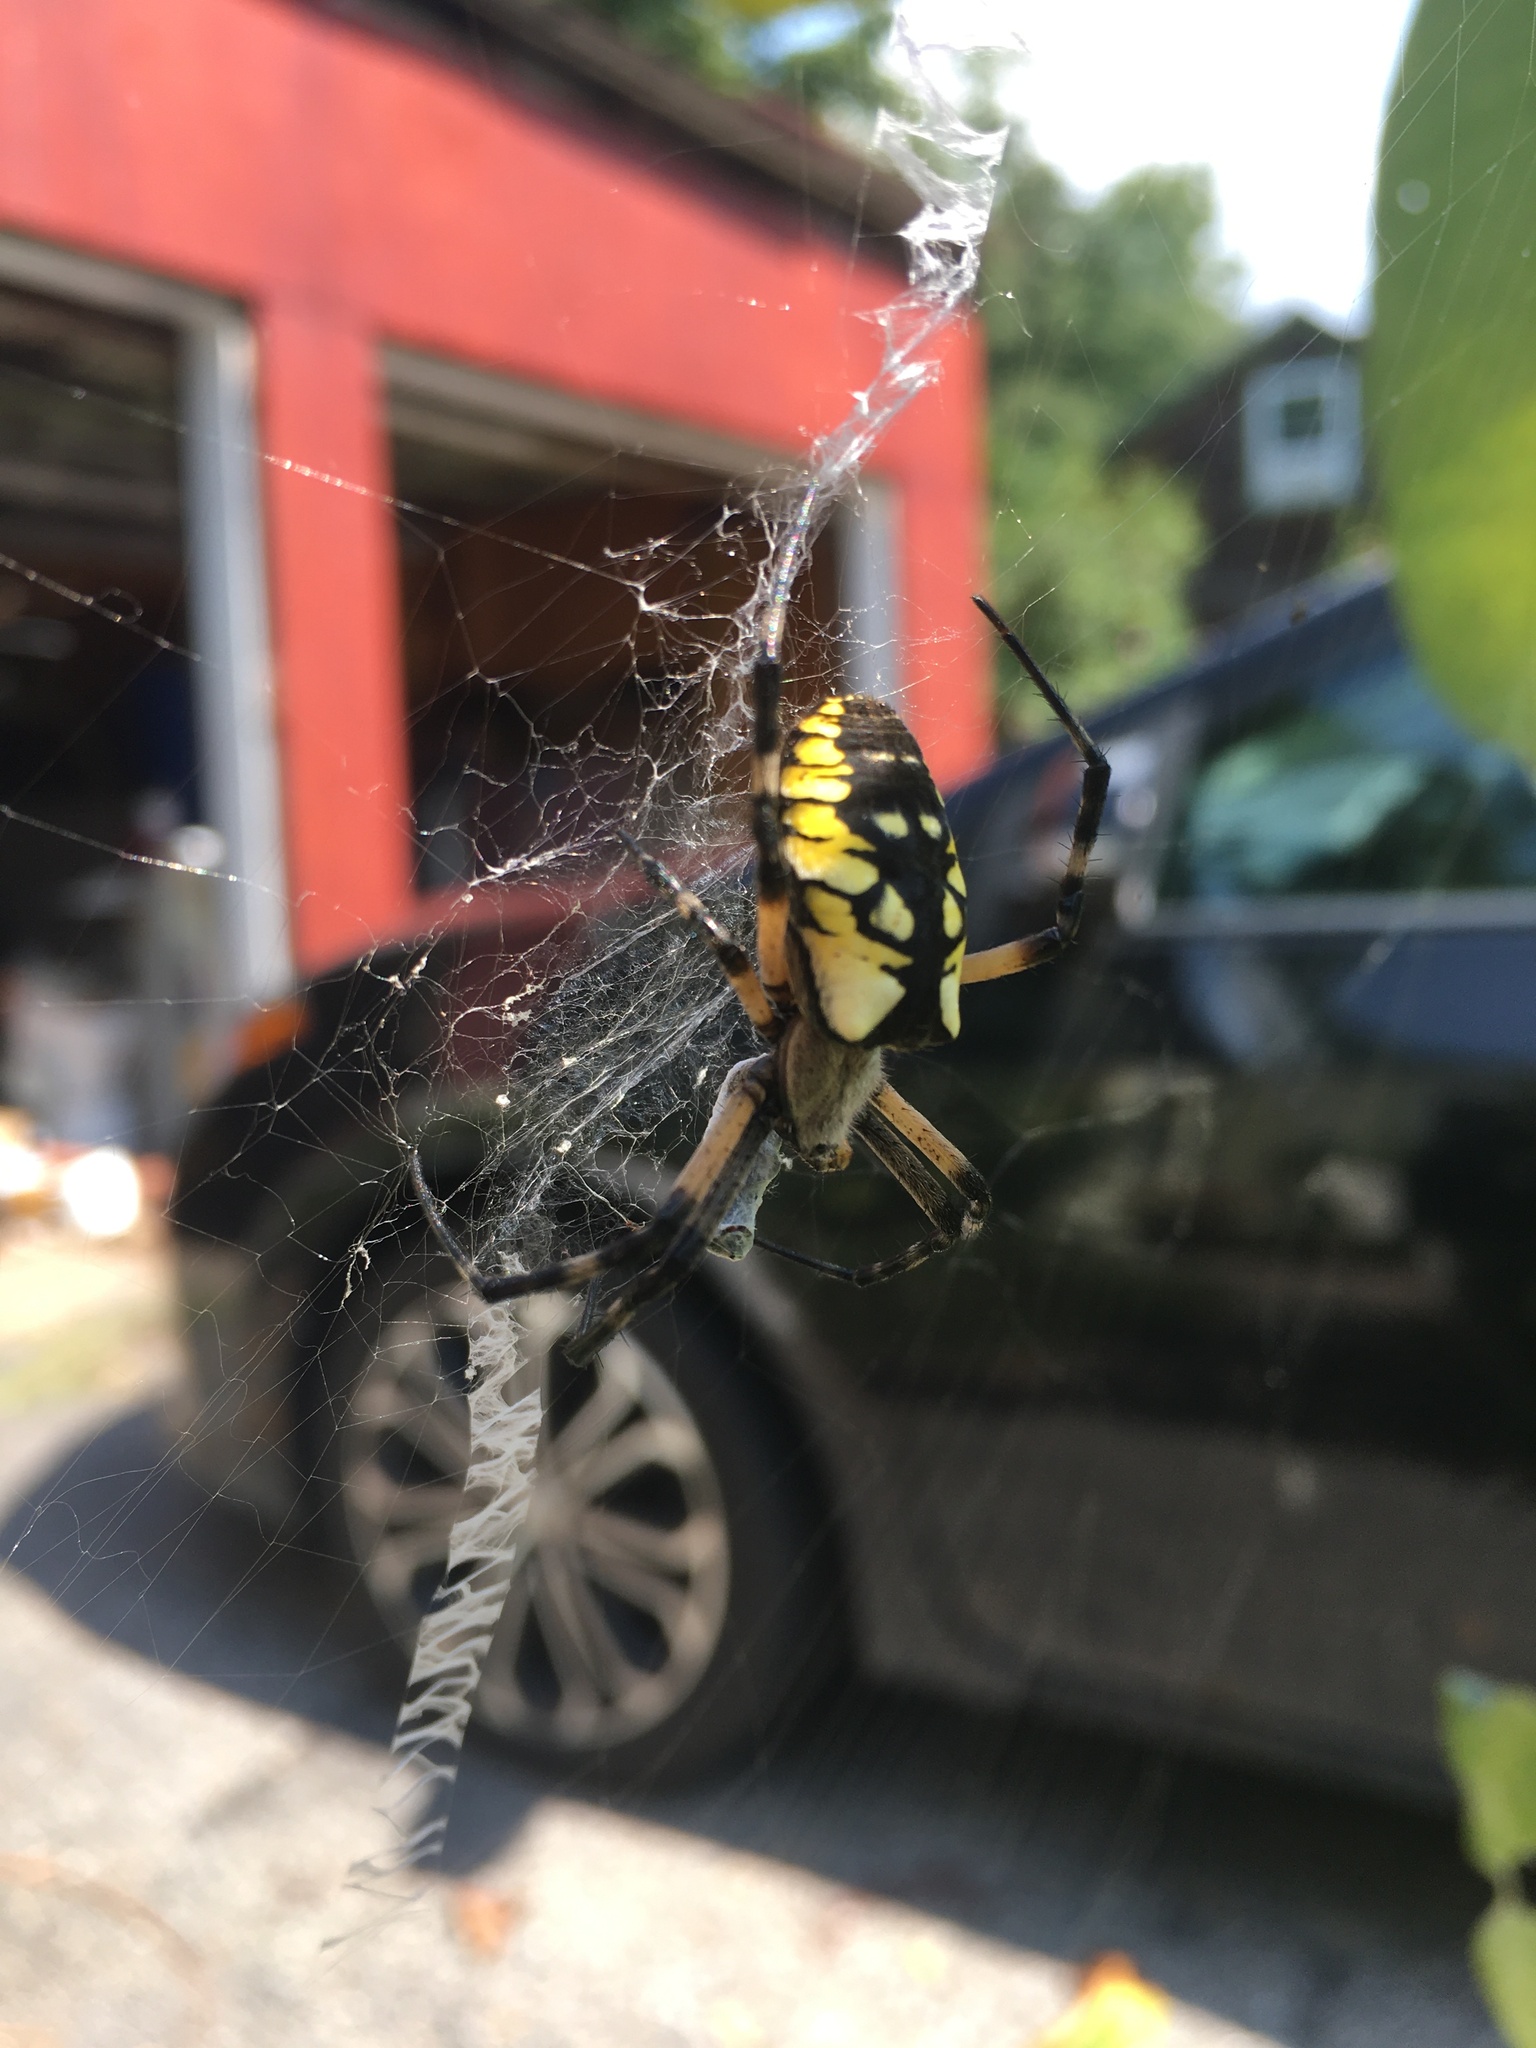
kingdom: Animalia
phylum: Arthropoda
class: Arachnida
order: Araneae
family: Araneidae
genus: Argiope
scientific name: Argiope aurantia
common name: Orb weavers
